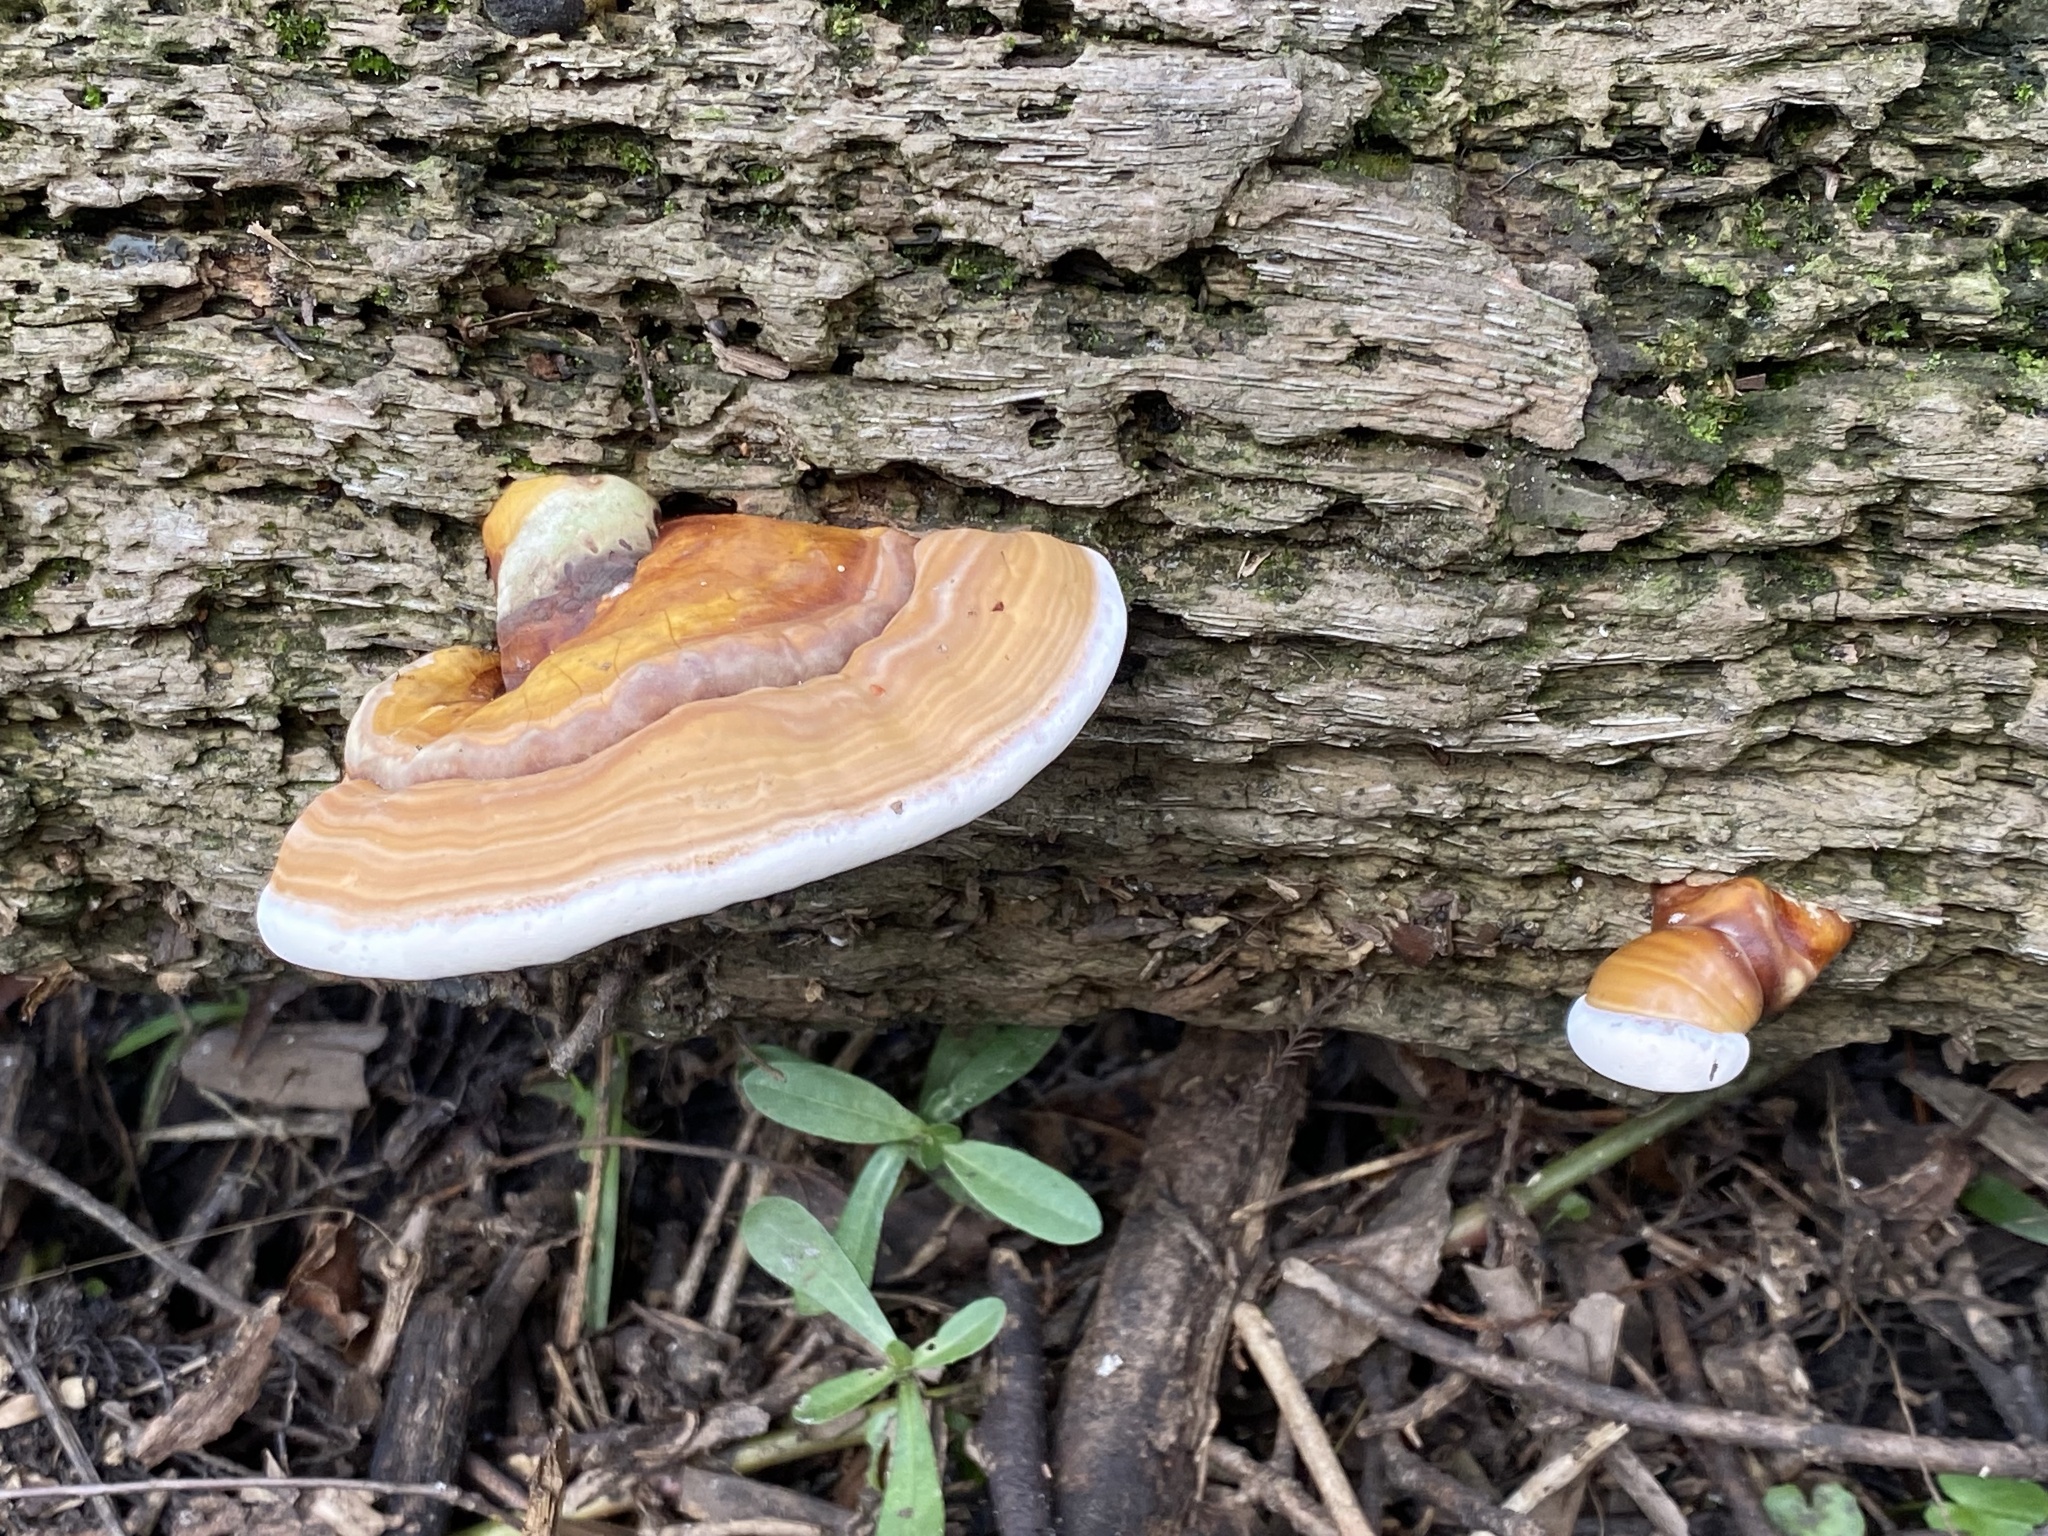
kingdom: Fungi
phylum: Basidiomycota
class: Agaricomycetes
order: Polyporales
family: Polyporaceae
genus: Ganoderma
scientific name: Ganoderma zonatum
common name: Ganoderma butt rot
